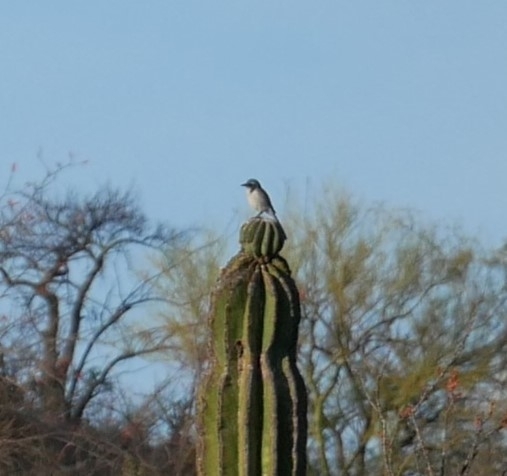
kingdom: Animalia
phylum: Chordata
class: Aves
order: Passeriformes
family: Corvidae
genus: Aphelocoma
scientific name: Aphelocoma californica
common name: California scrub-jay
